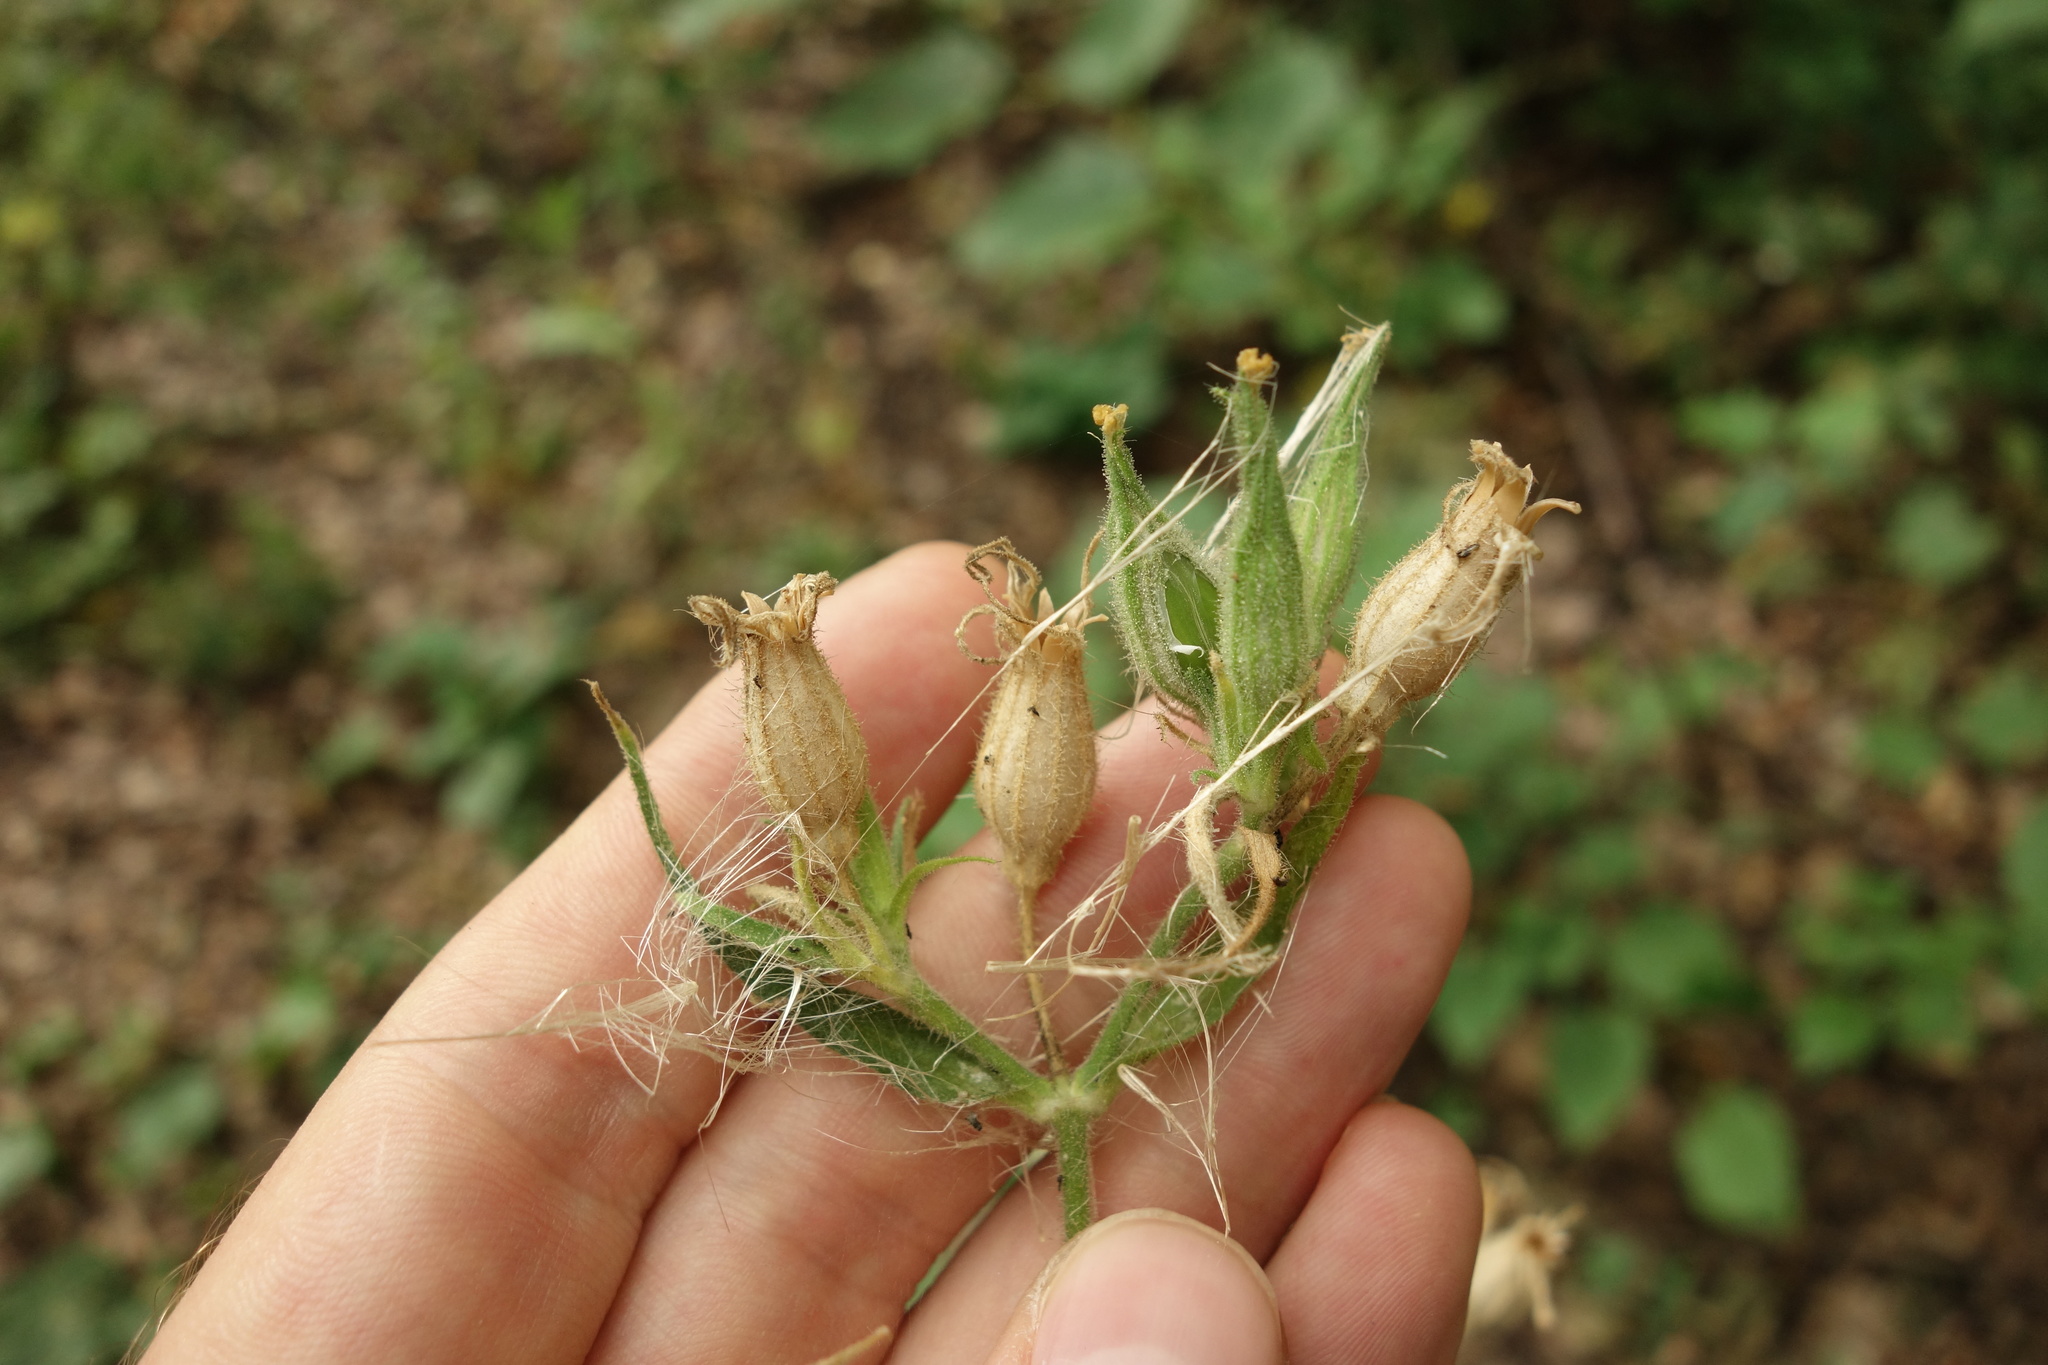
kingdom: Plantae
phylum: Tracheophyta
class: Magnoliopsida
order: Caryophyllales
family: Caryophyllaceae
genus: Silene
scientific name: Silene noctiflora
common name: Night-flowering catchfly
